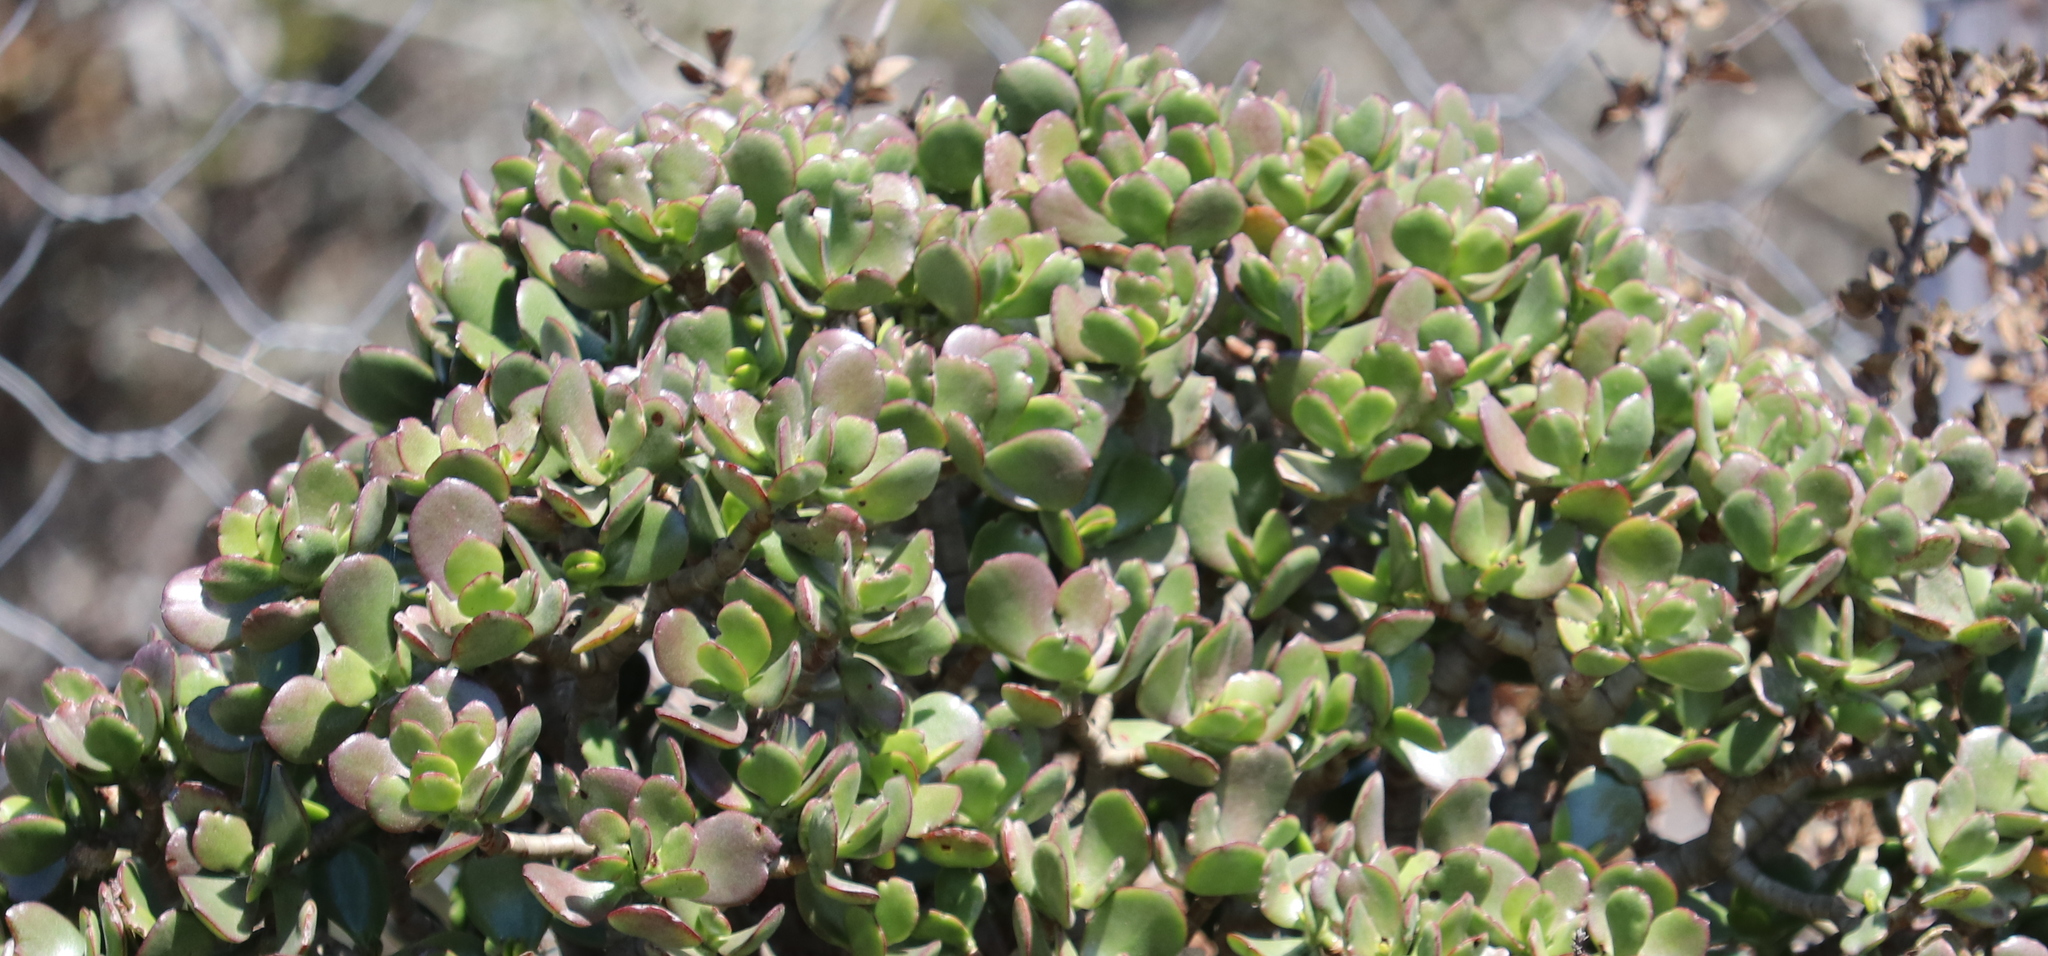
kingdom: Plantae
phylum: Tracheophyta
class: Magnoliopsida
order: Saxifragales
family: Crassulaceae
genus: Crassula
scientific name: Crassula ovata
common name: Jade plant
